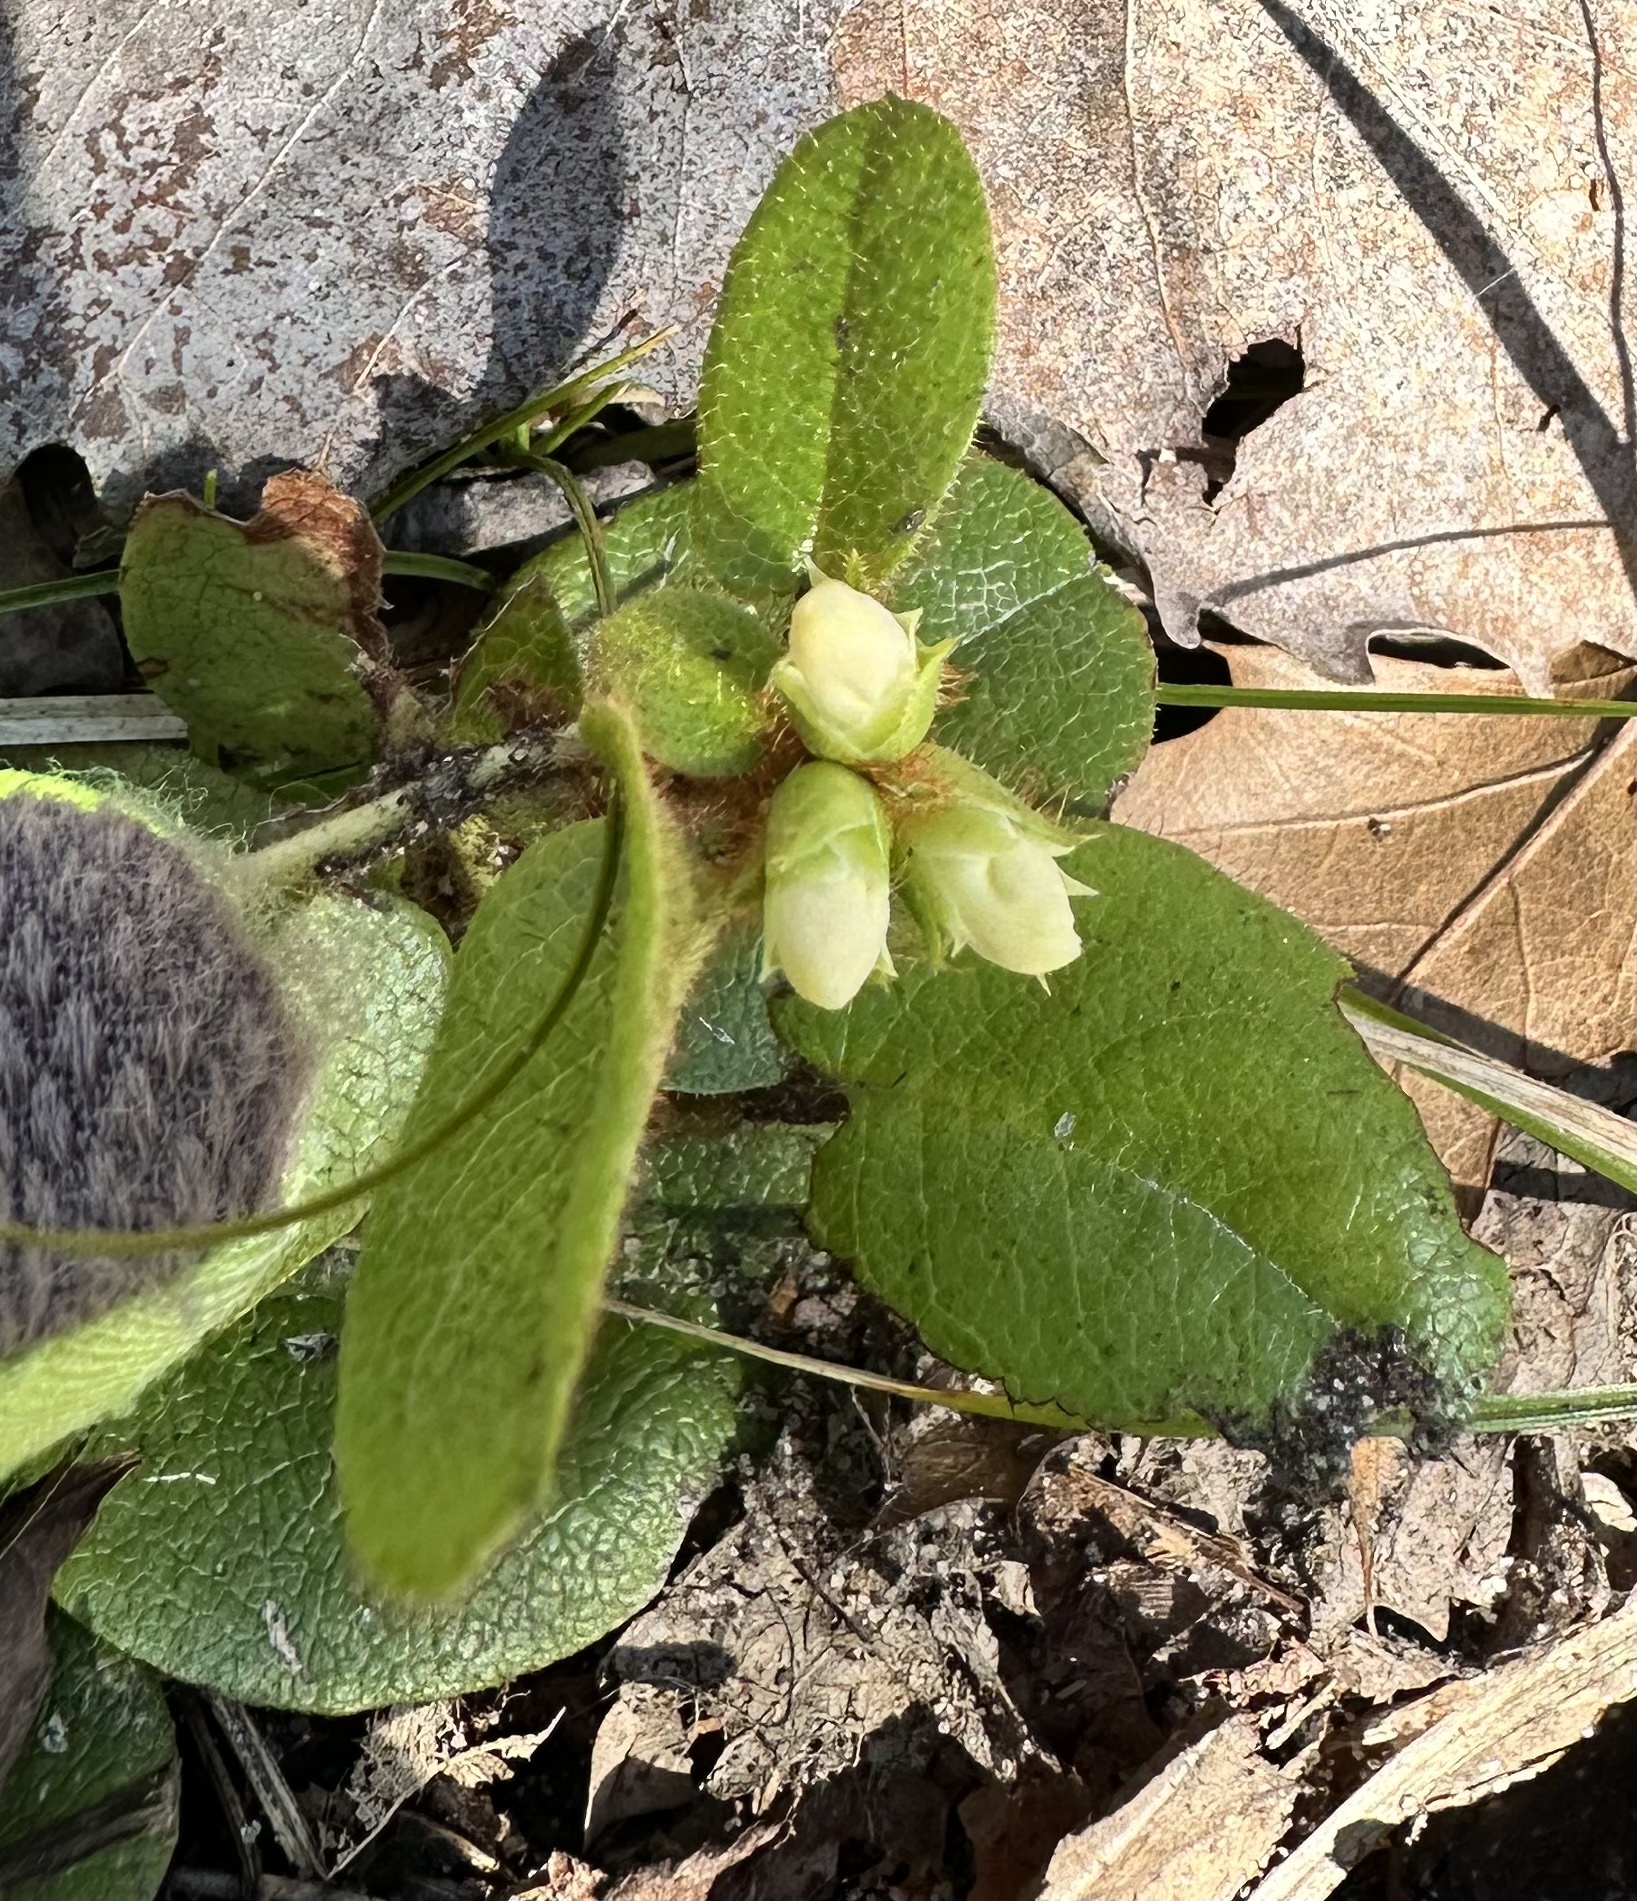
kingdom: Plantae
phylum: Tracheophyta
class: Magnoliopsida
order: Ericales
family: Ericaceae
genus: Epigaea
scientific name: Epigaea repens
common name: Gravelroot
